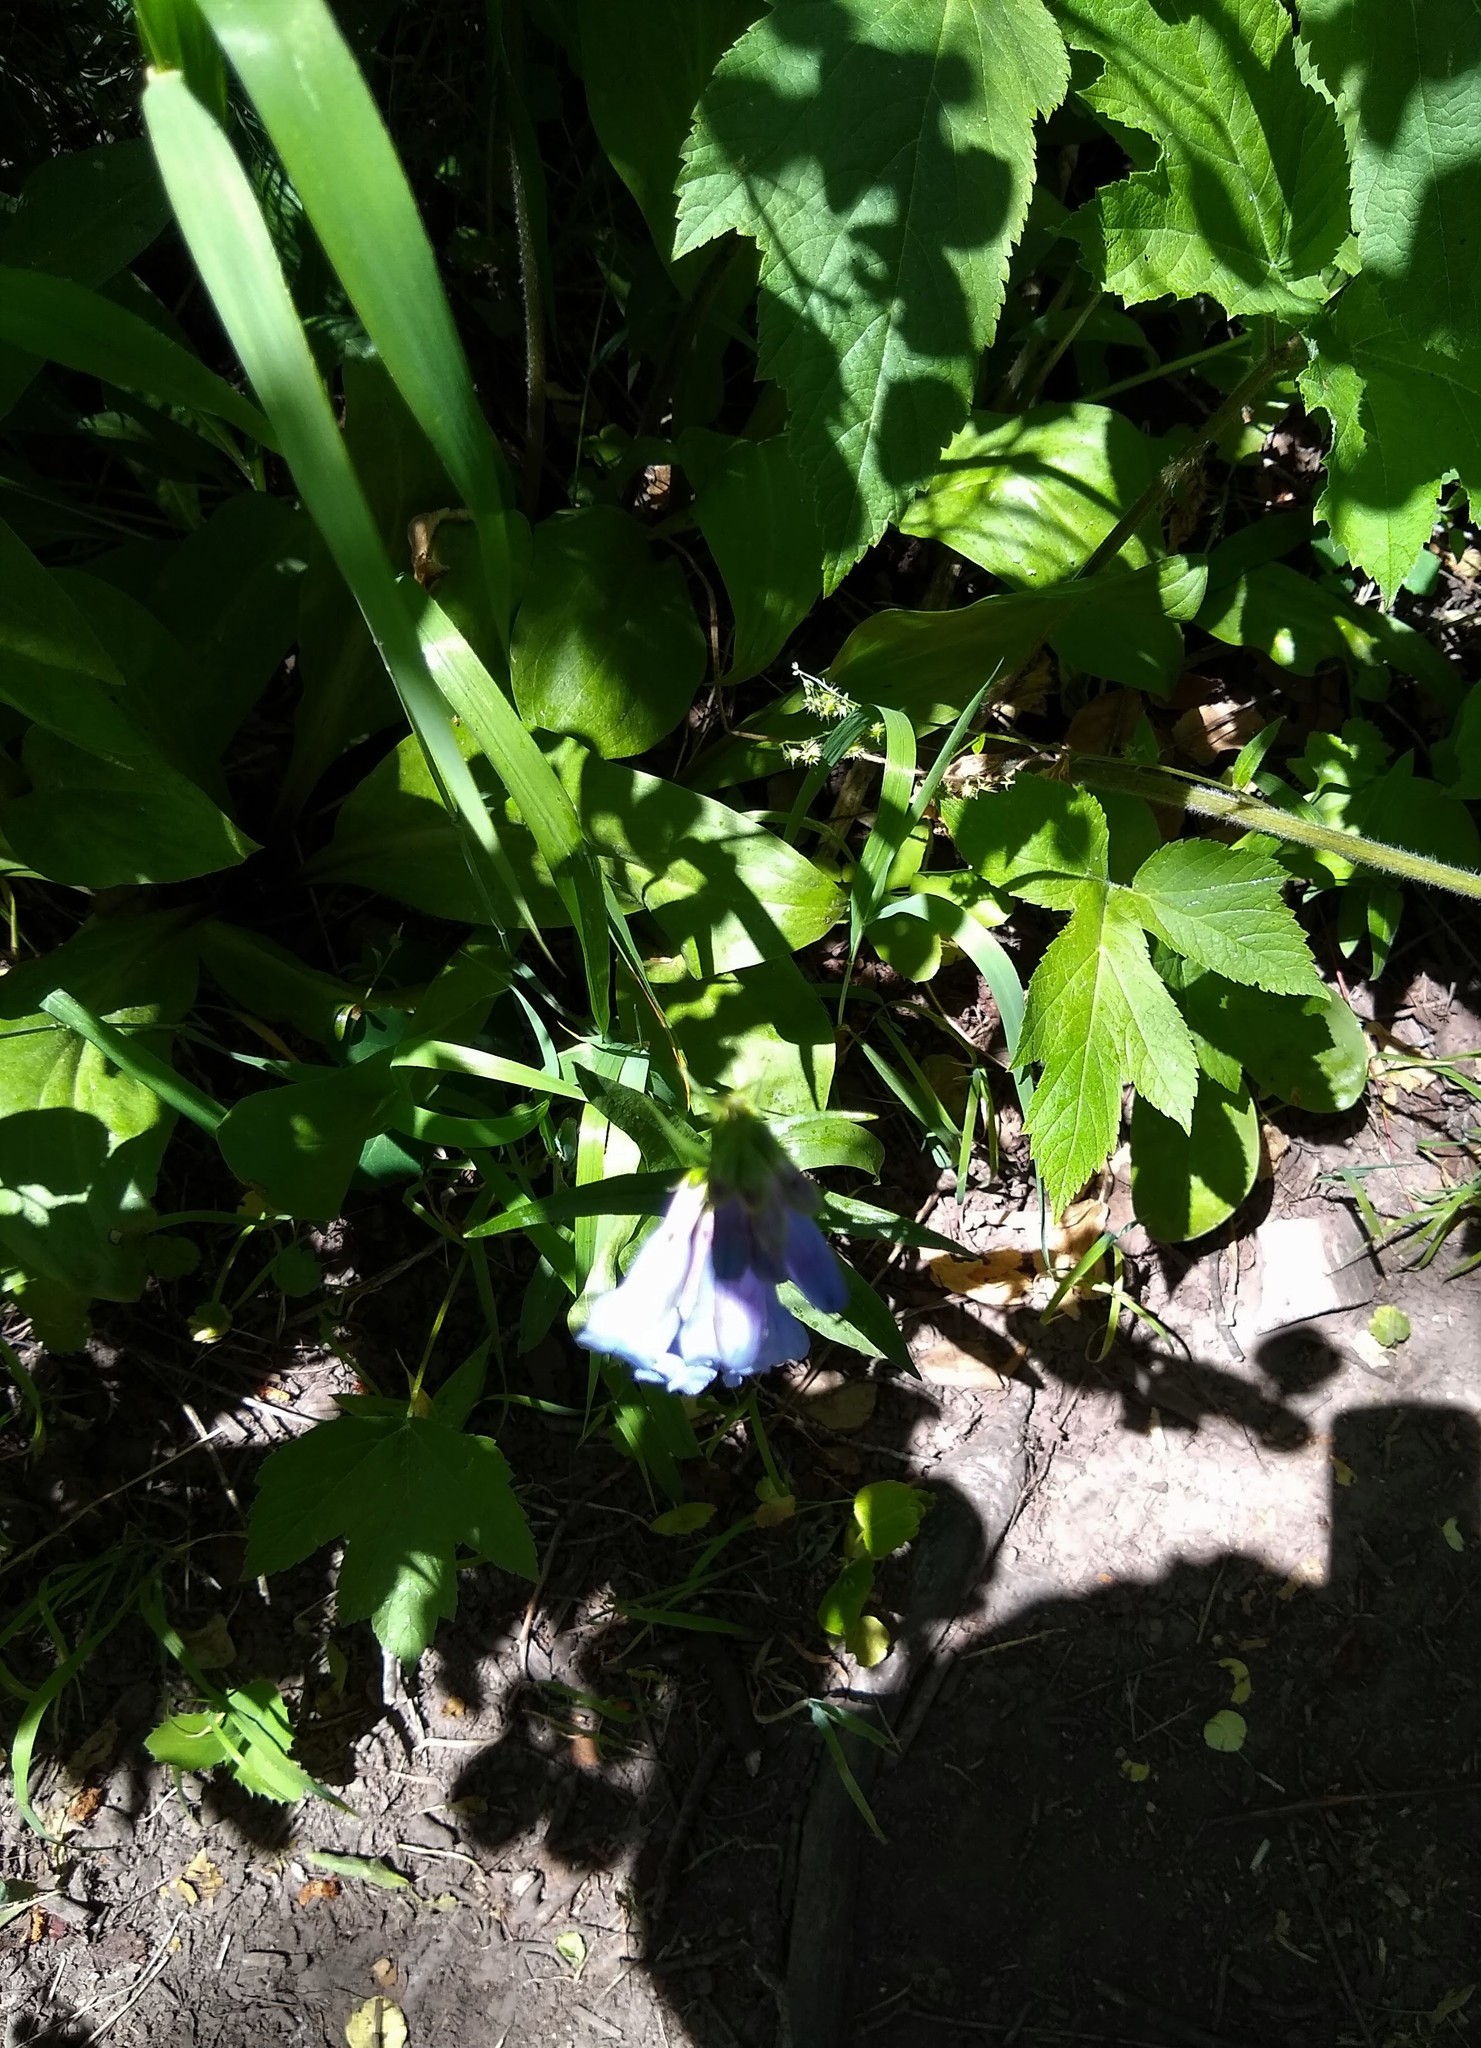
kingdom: Plantae
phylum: Tracheophyta
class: Magnoliopsida
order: Lamiales
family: Plantaginaceae
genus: Penstemon
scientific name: Penstemon subglaber
